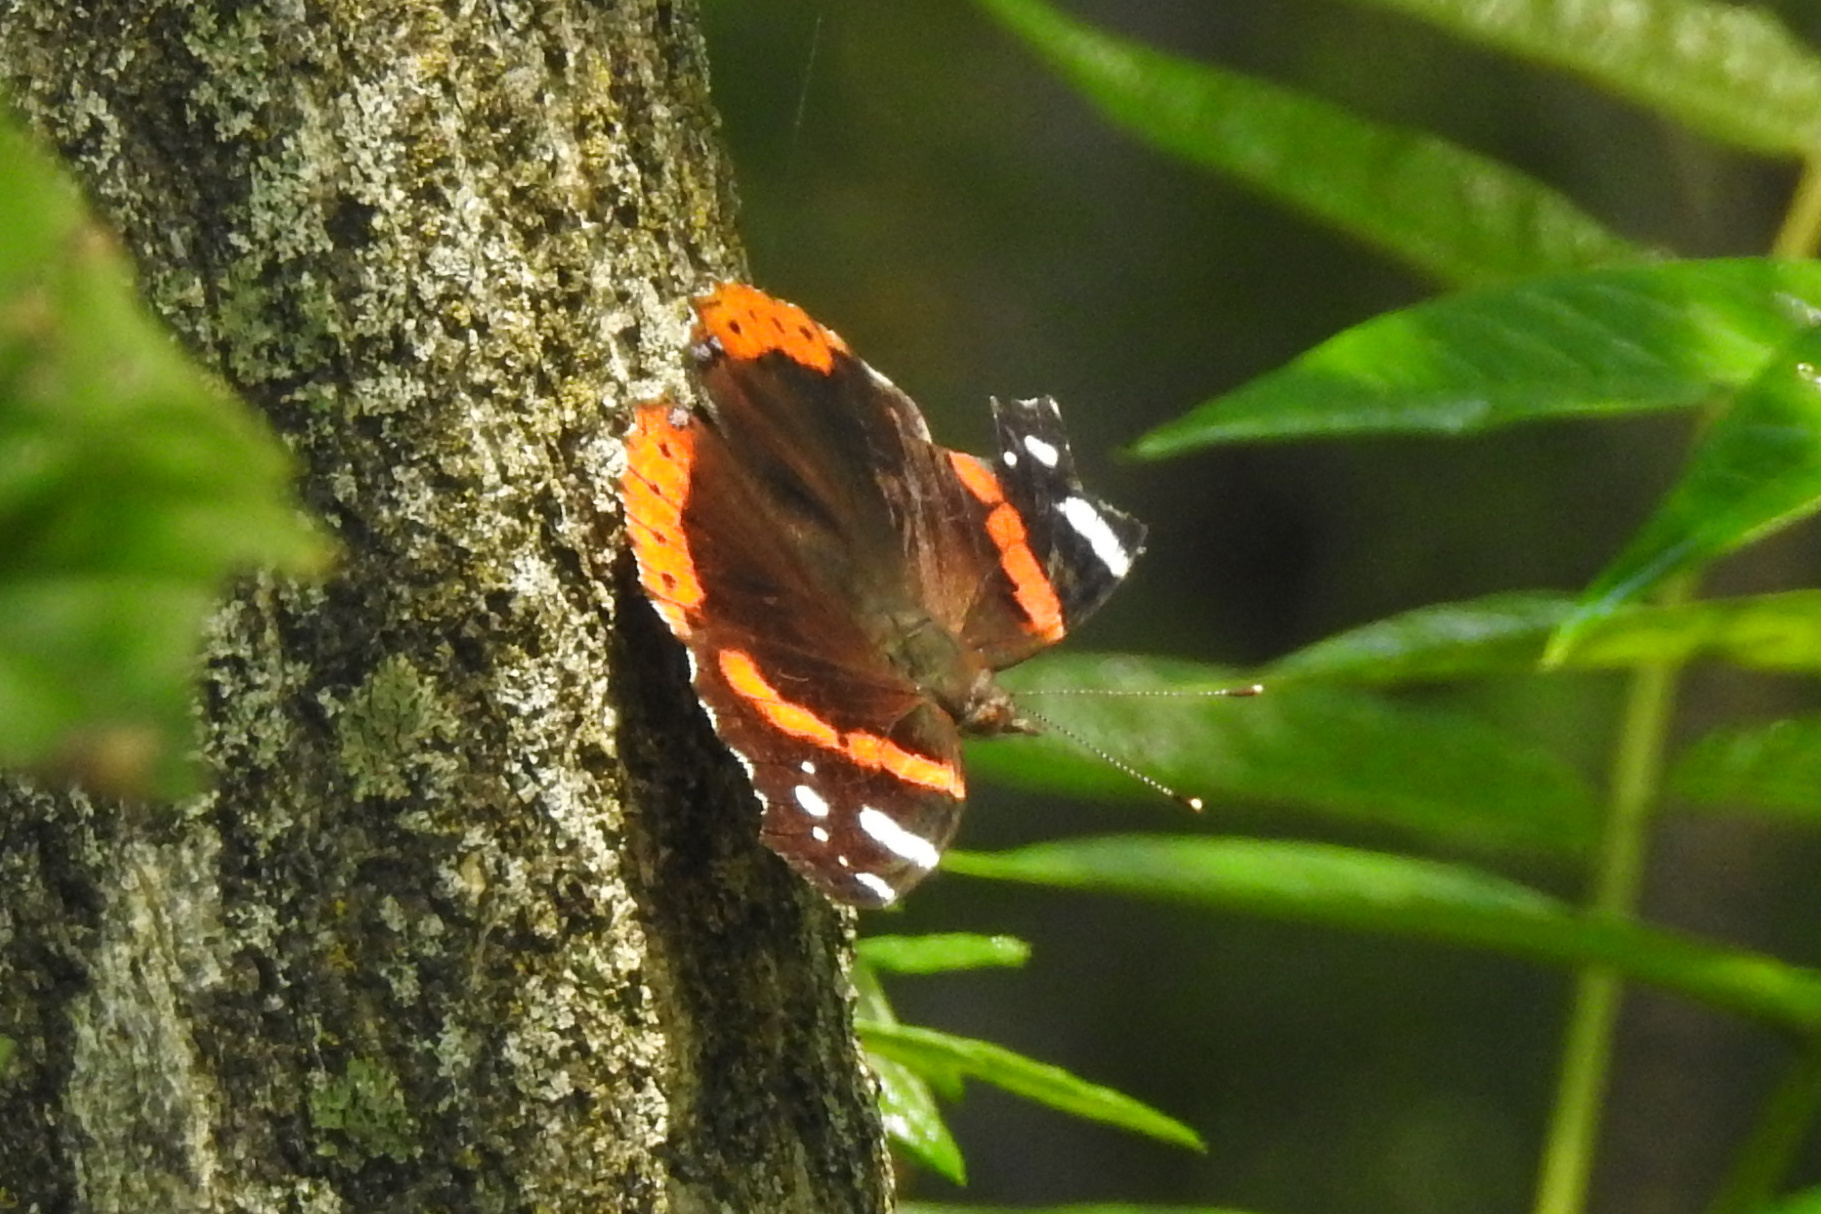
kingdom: Animalia
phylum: Arthropoda
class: Insecta
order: Lepidoptera
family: Nymphalidae
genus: Vanessa
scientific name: Vanessa atalanta
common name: Red admiral
